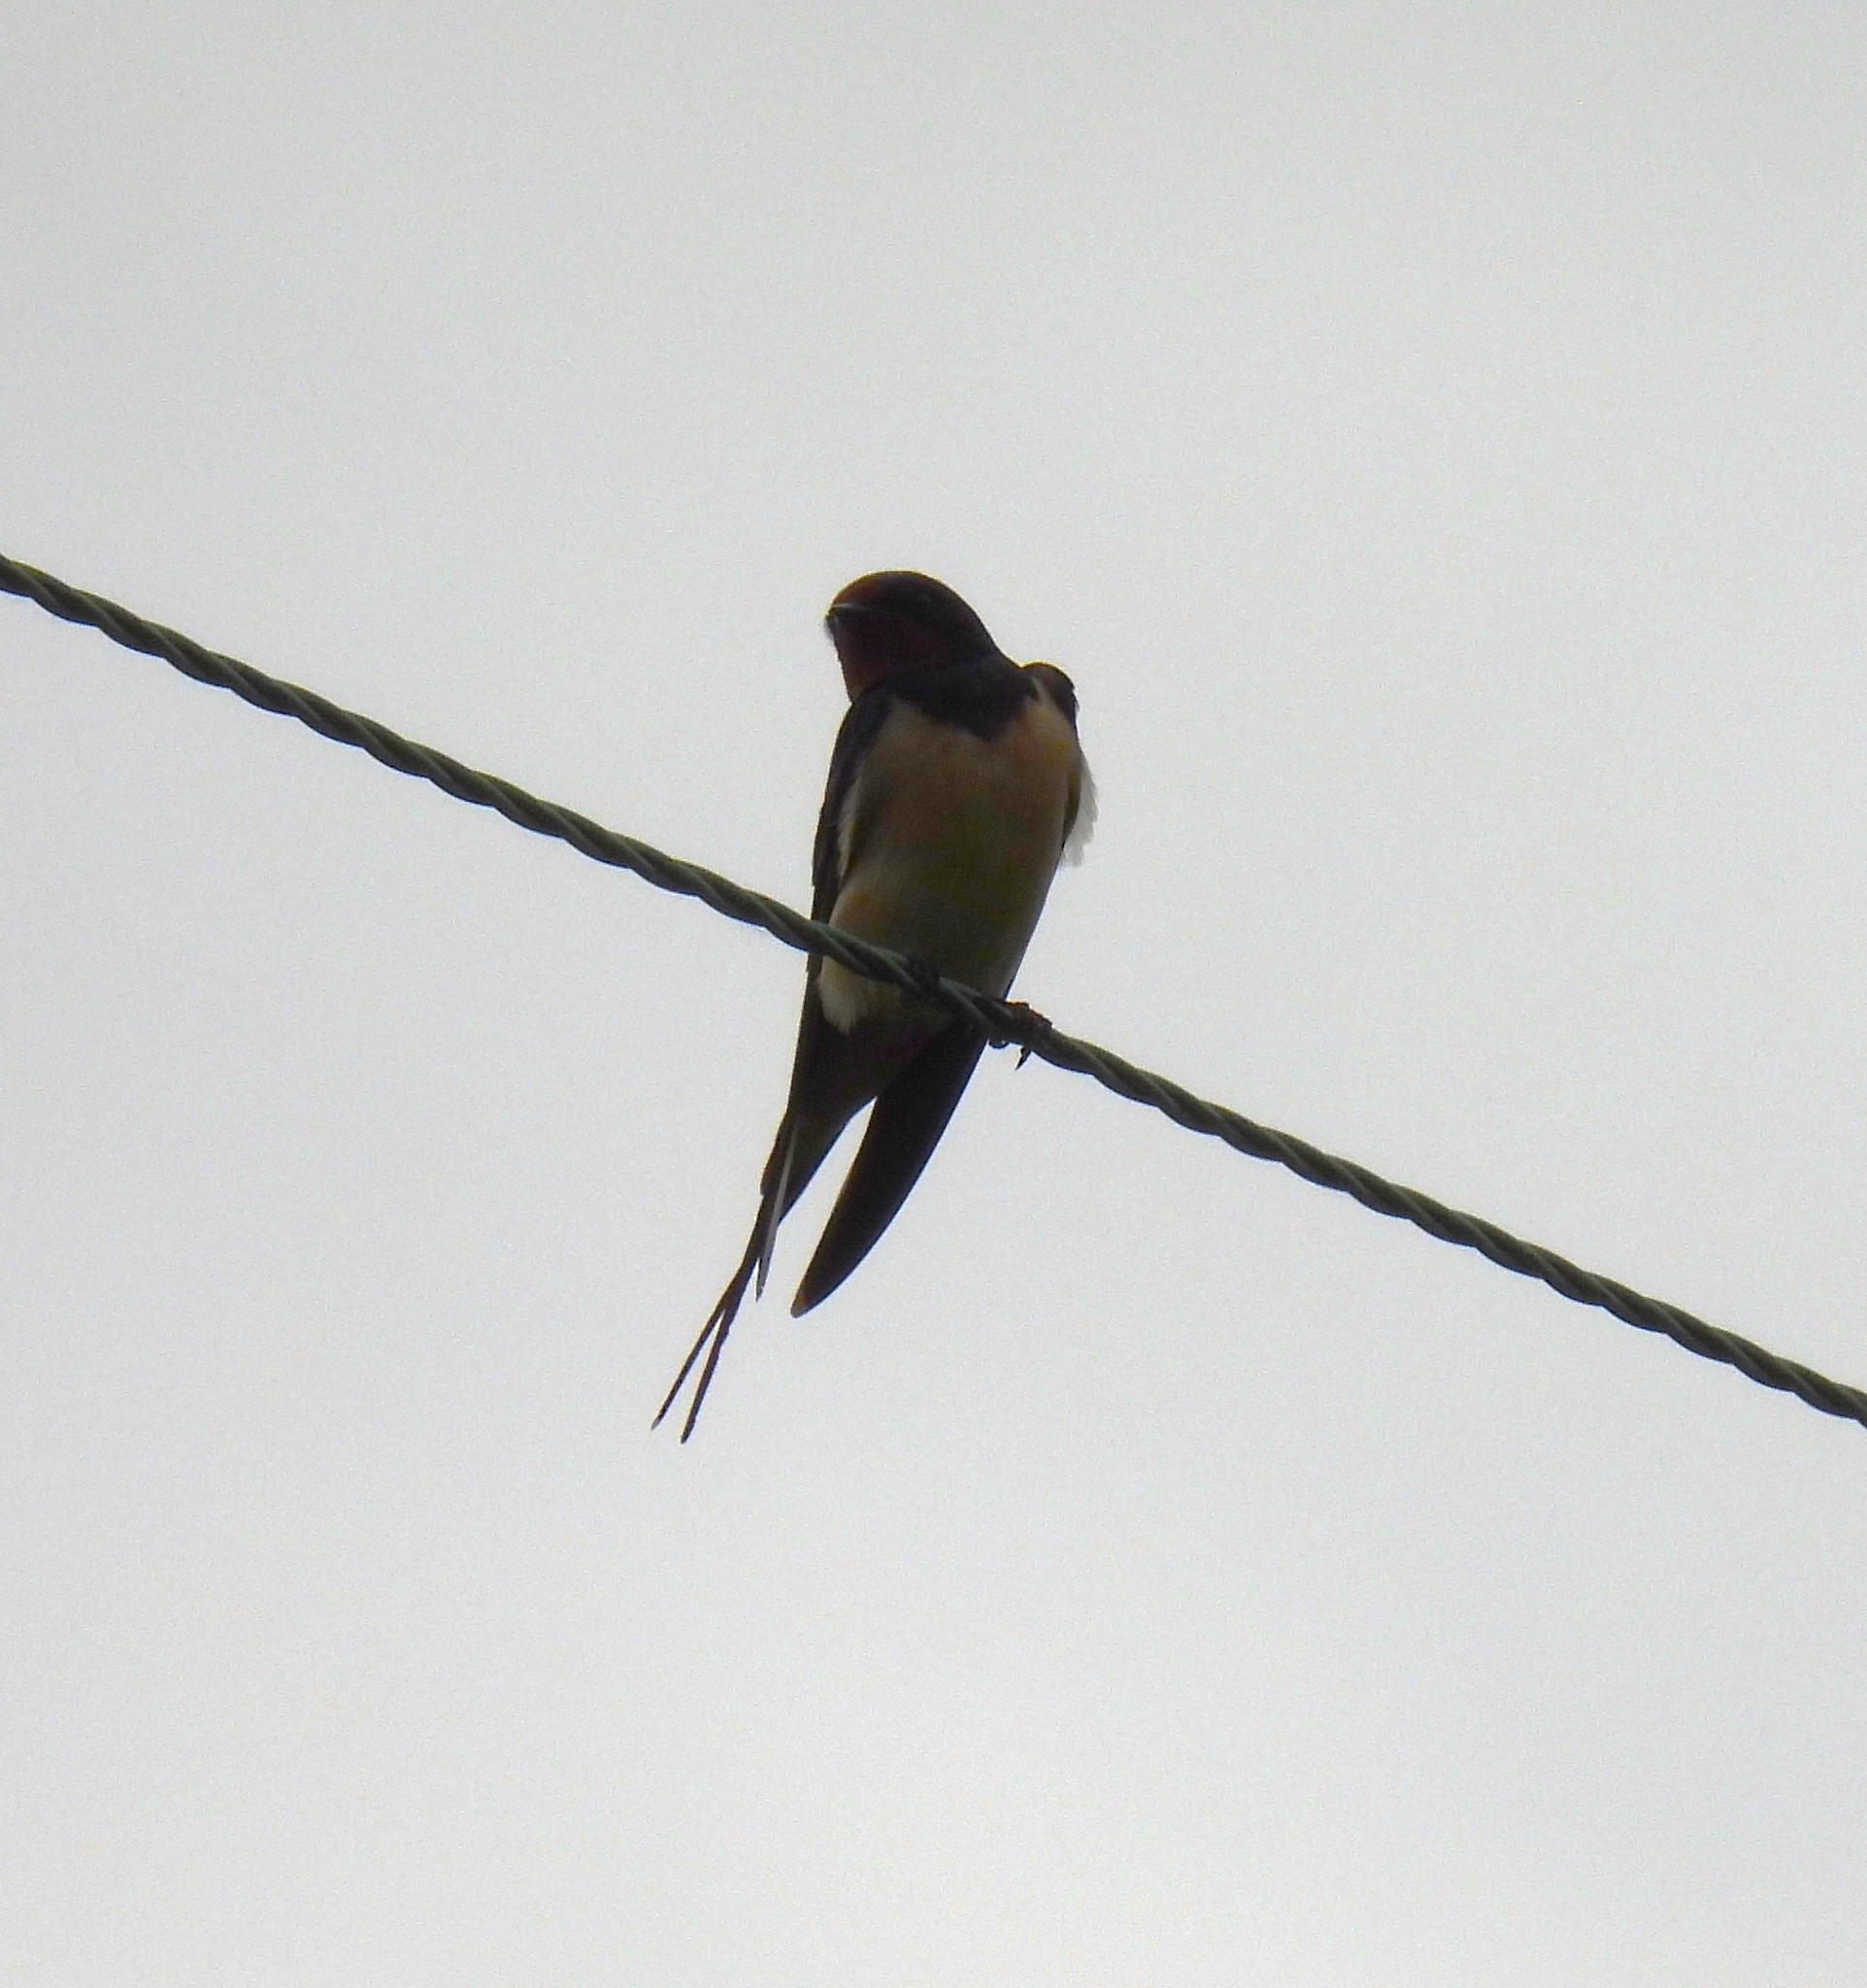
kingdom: Animalia
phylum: Chordata
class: Aves
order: Passeriformes
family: Hirundinidae
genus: Hirundo
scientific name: Hirundo rustica
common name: Barn swallow
